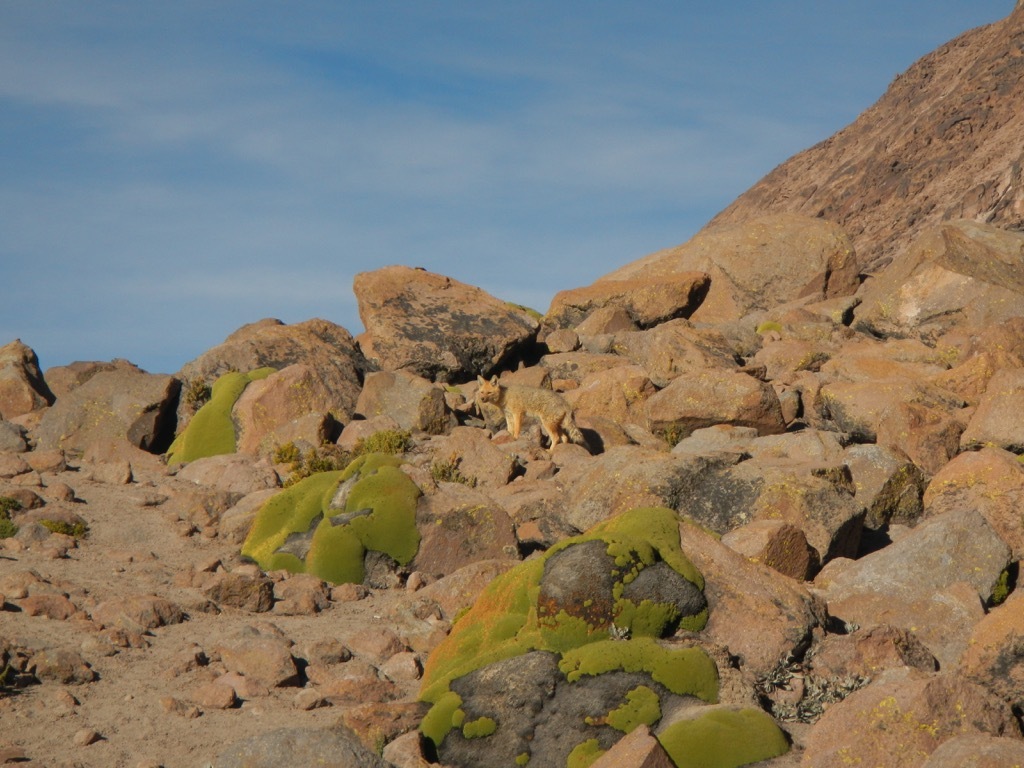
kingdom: Animalia
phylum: Chordata
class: Mammalia
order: Carnivora
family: Canidae
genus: Lycalopex
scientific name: Lycalopex culpaeus
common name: Culpeo
